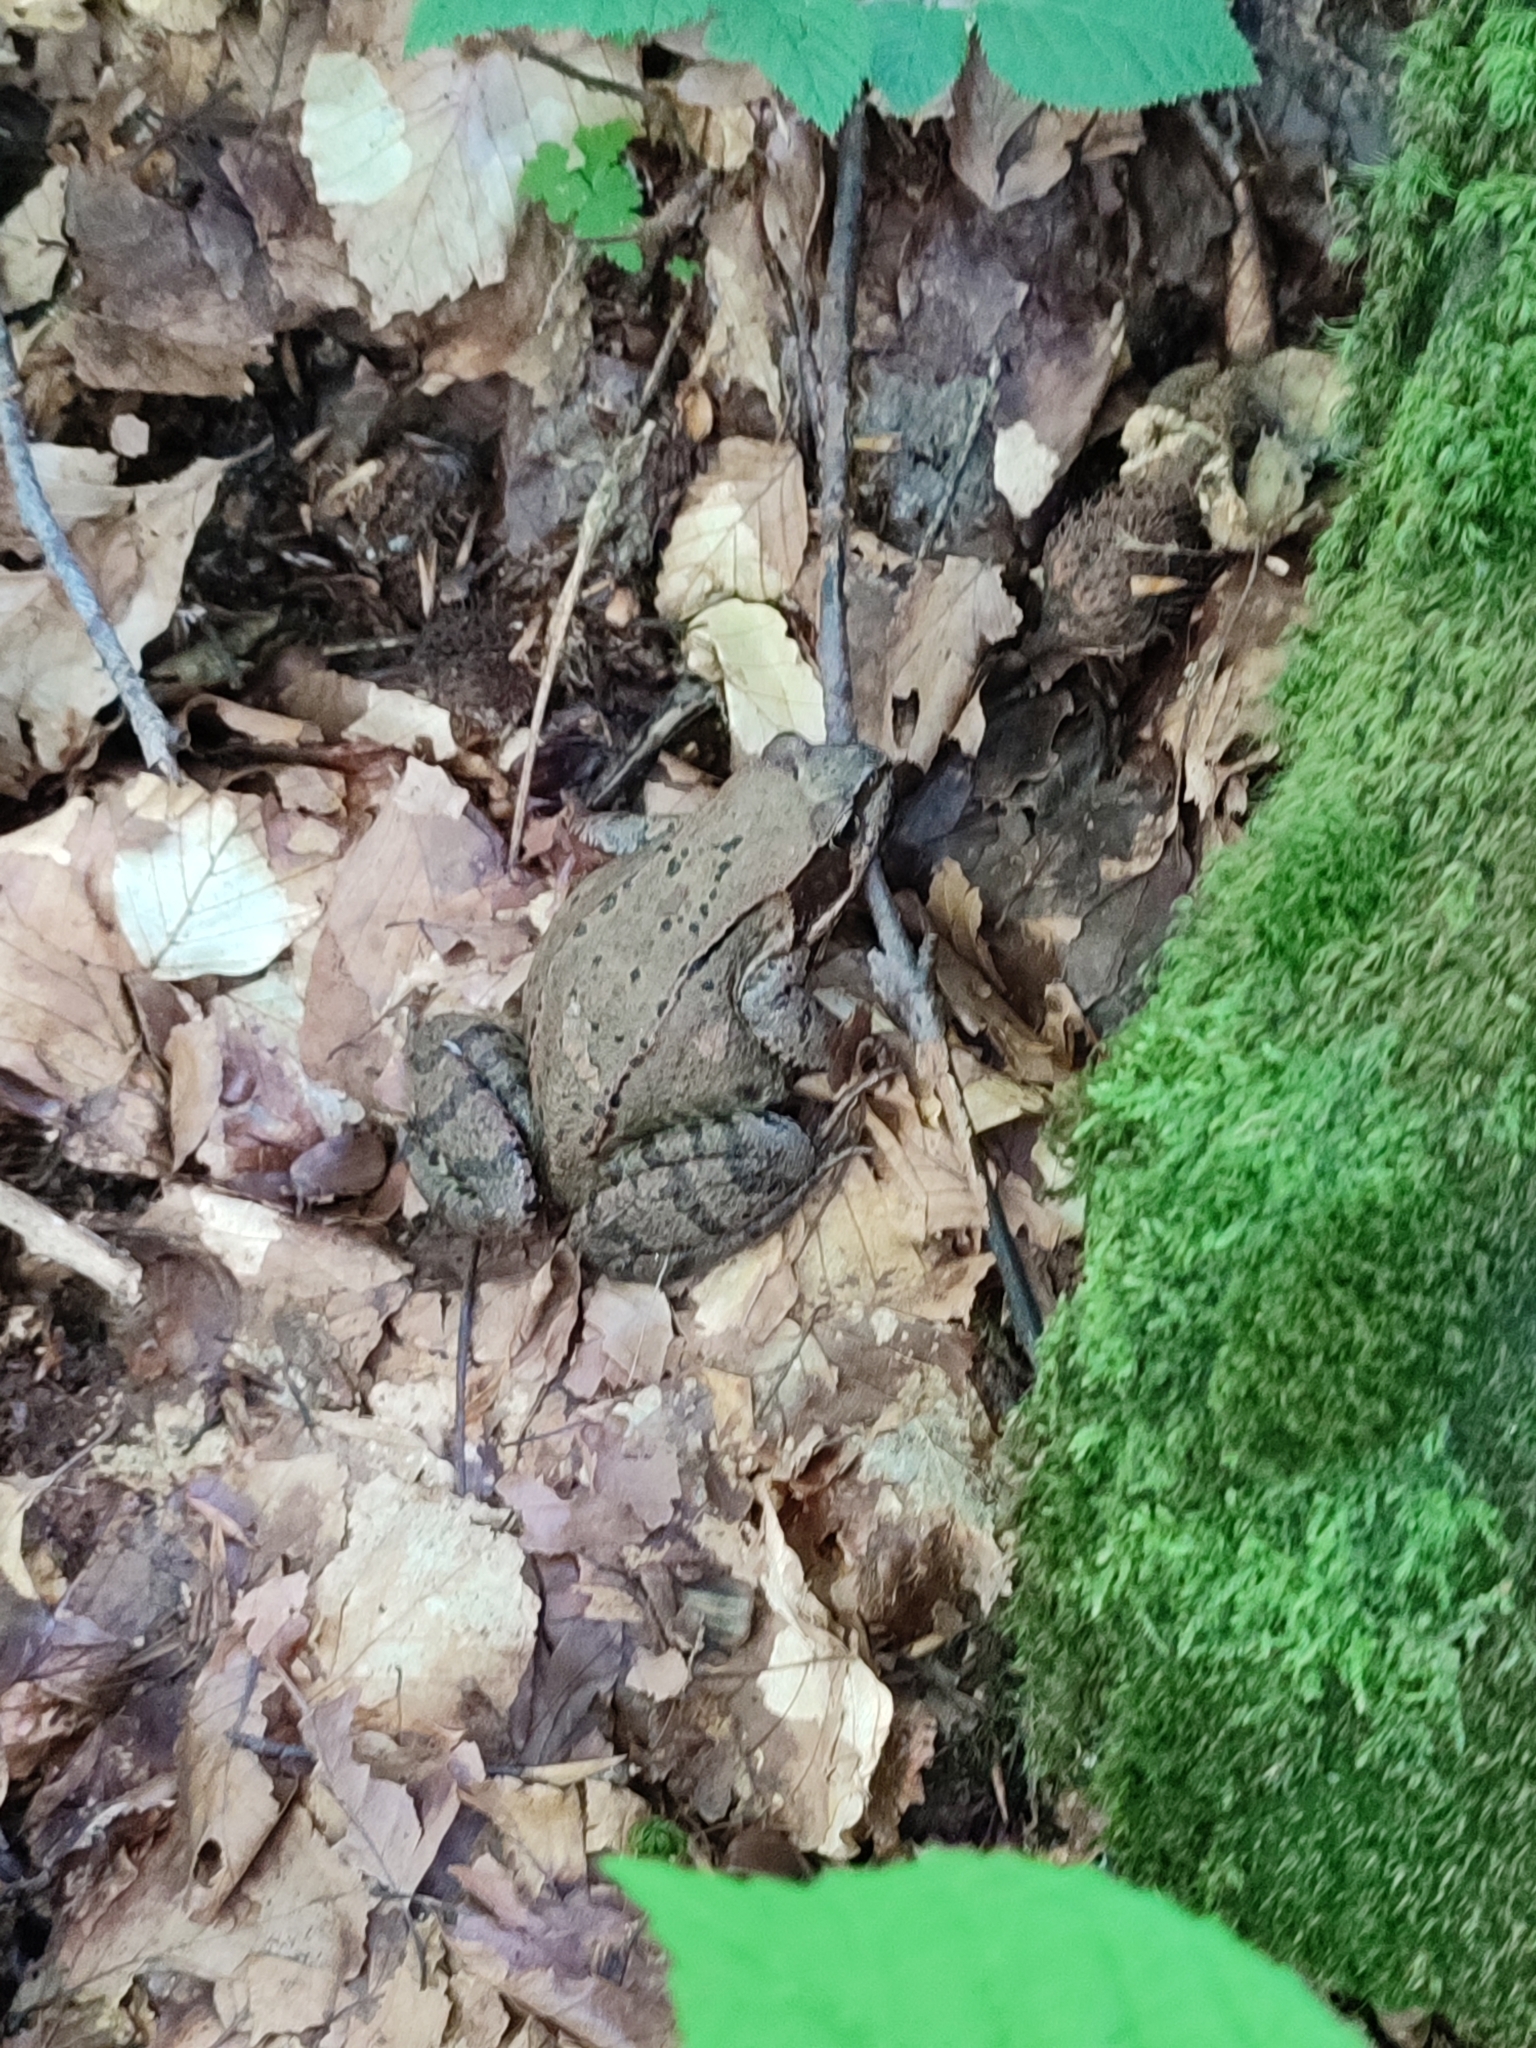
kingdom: Animalia
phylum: Chordata
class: Amphibia
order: Anura
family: Ranidae
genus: Rana
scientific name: Rana temporaria
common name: Common frog
